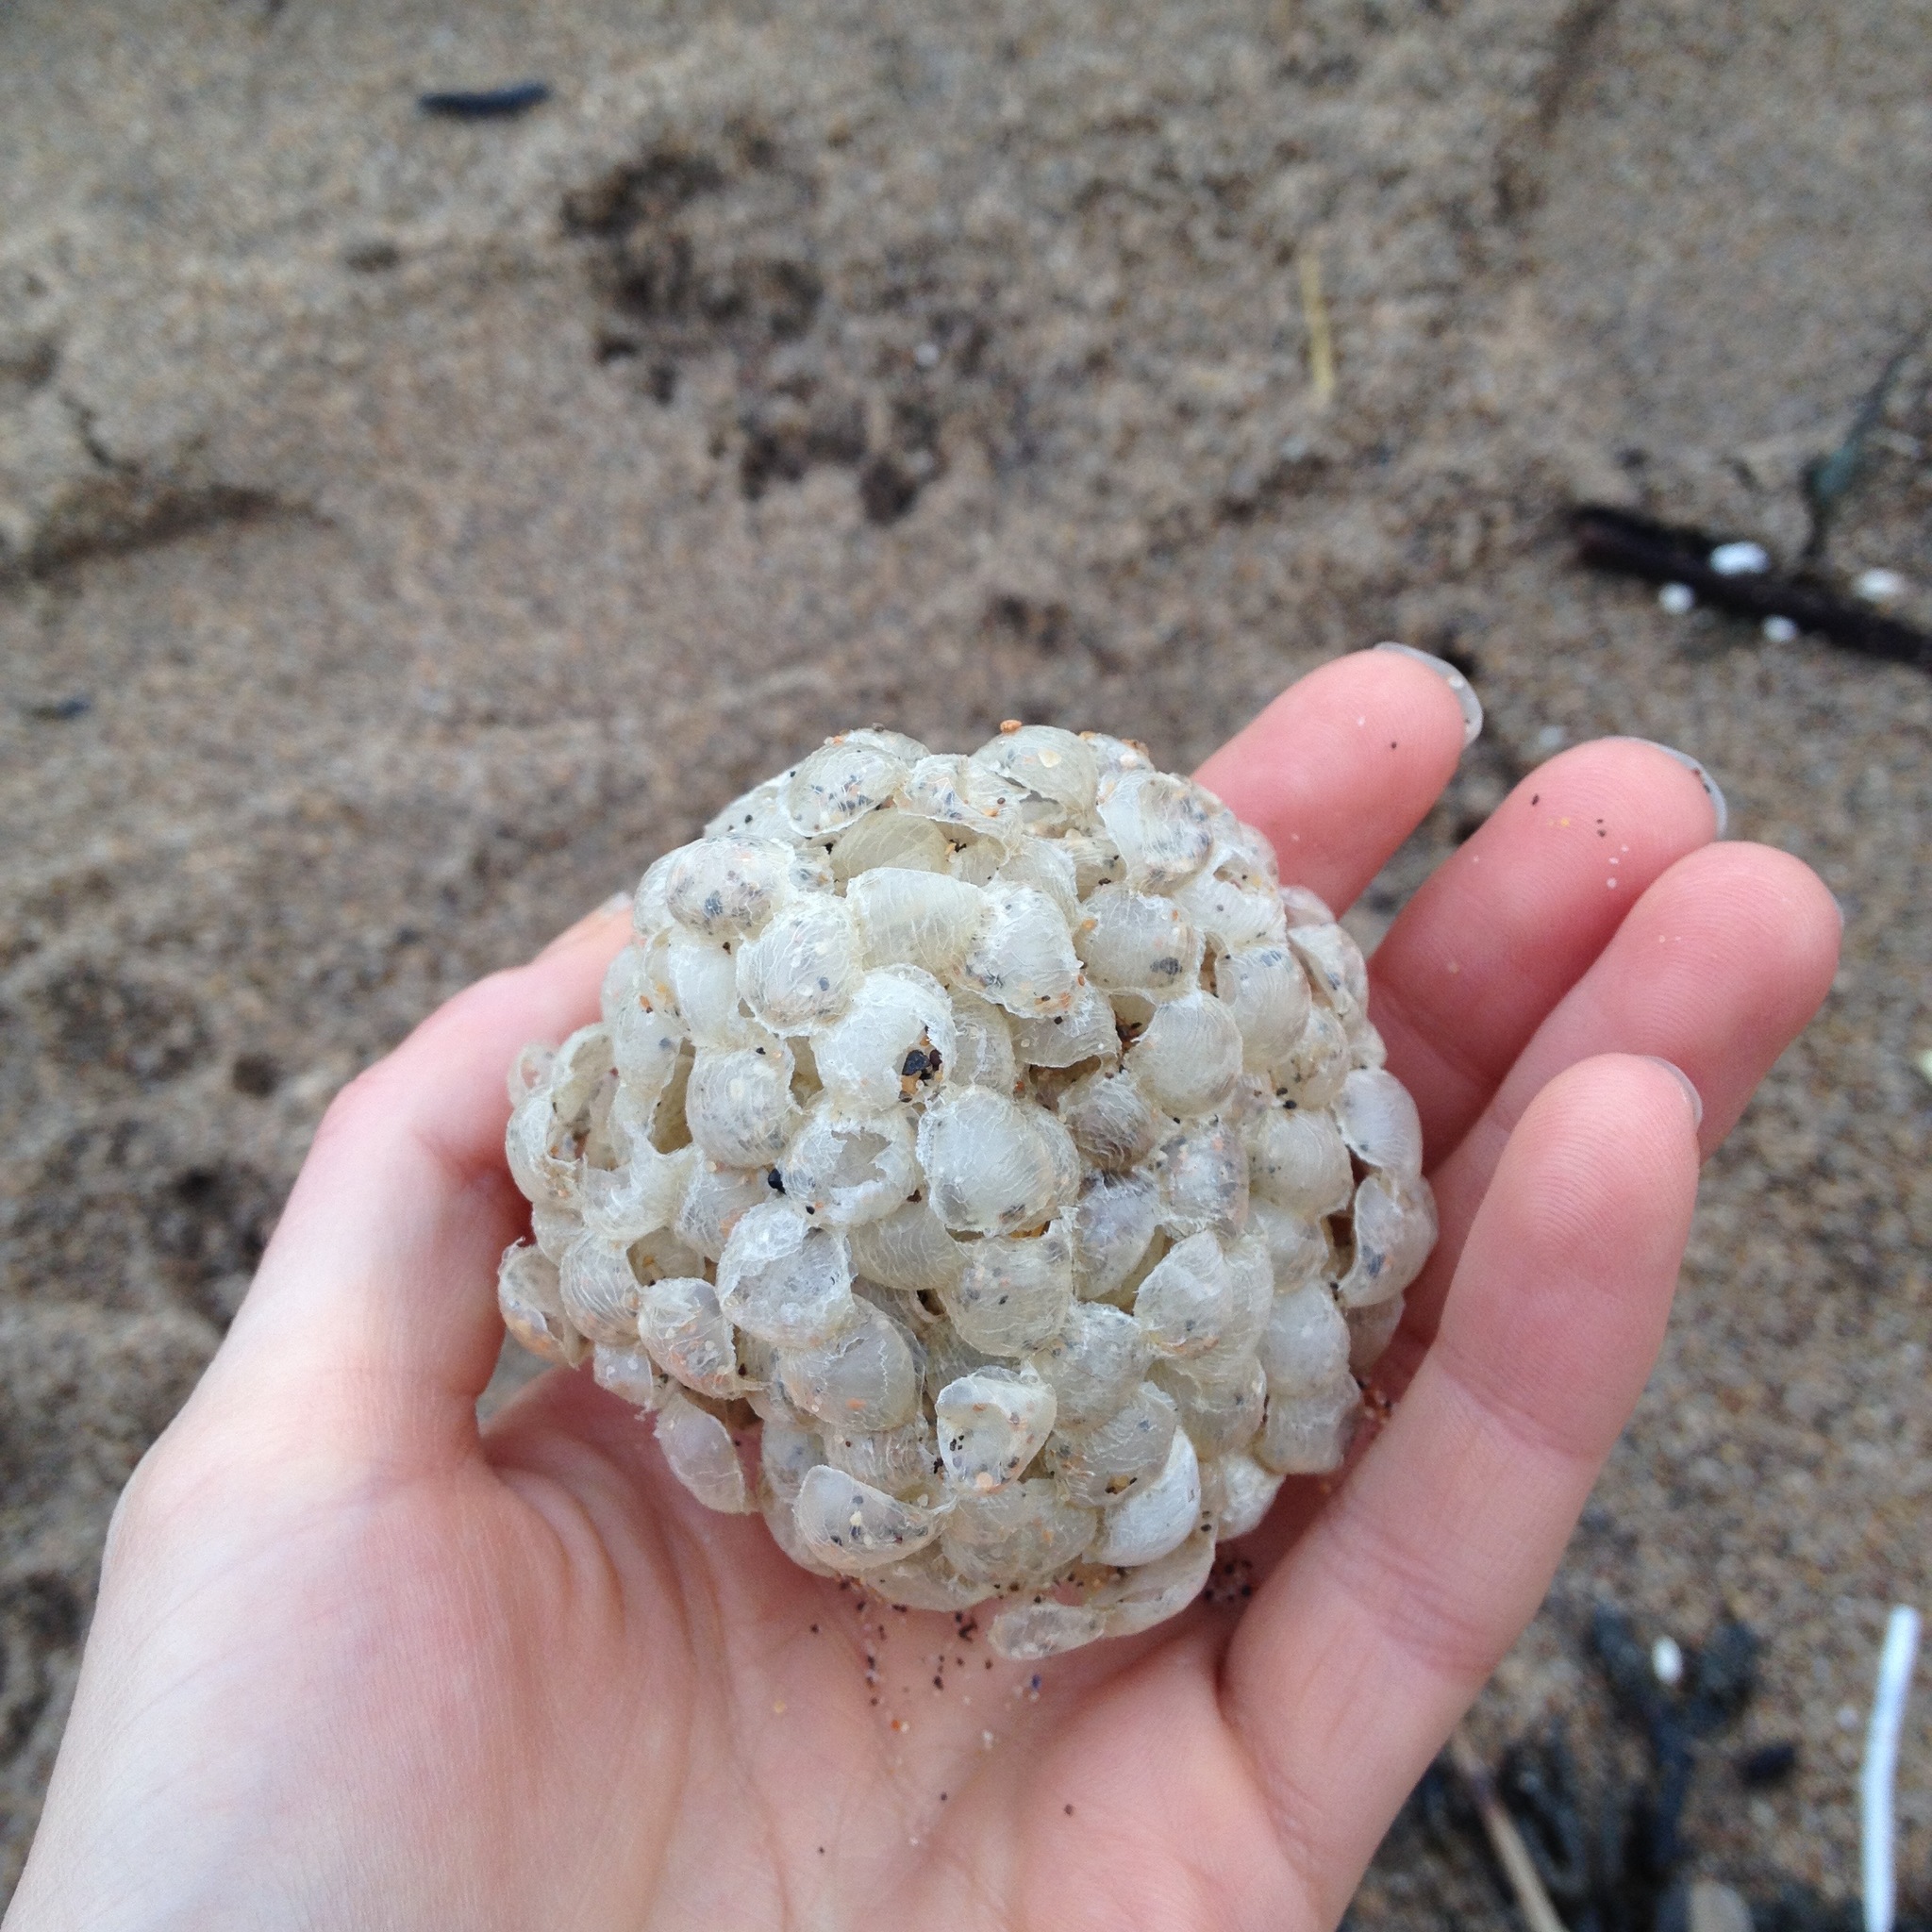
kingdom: Animalia
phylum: Mollusca
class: Gastropoda
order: Neogastropoda
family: Buccinidae
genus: Buccinum
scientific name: Buccinum undatum
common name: Common whelk
